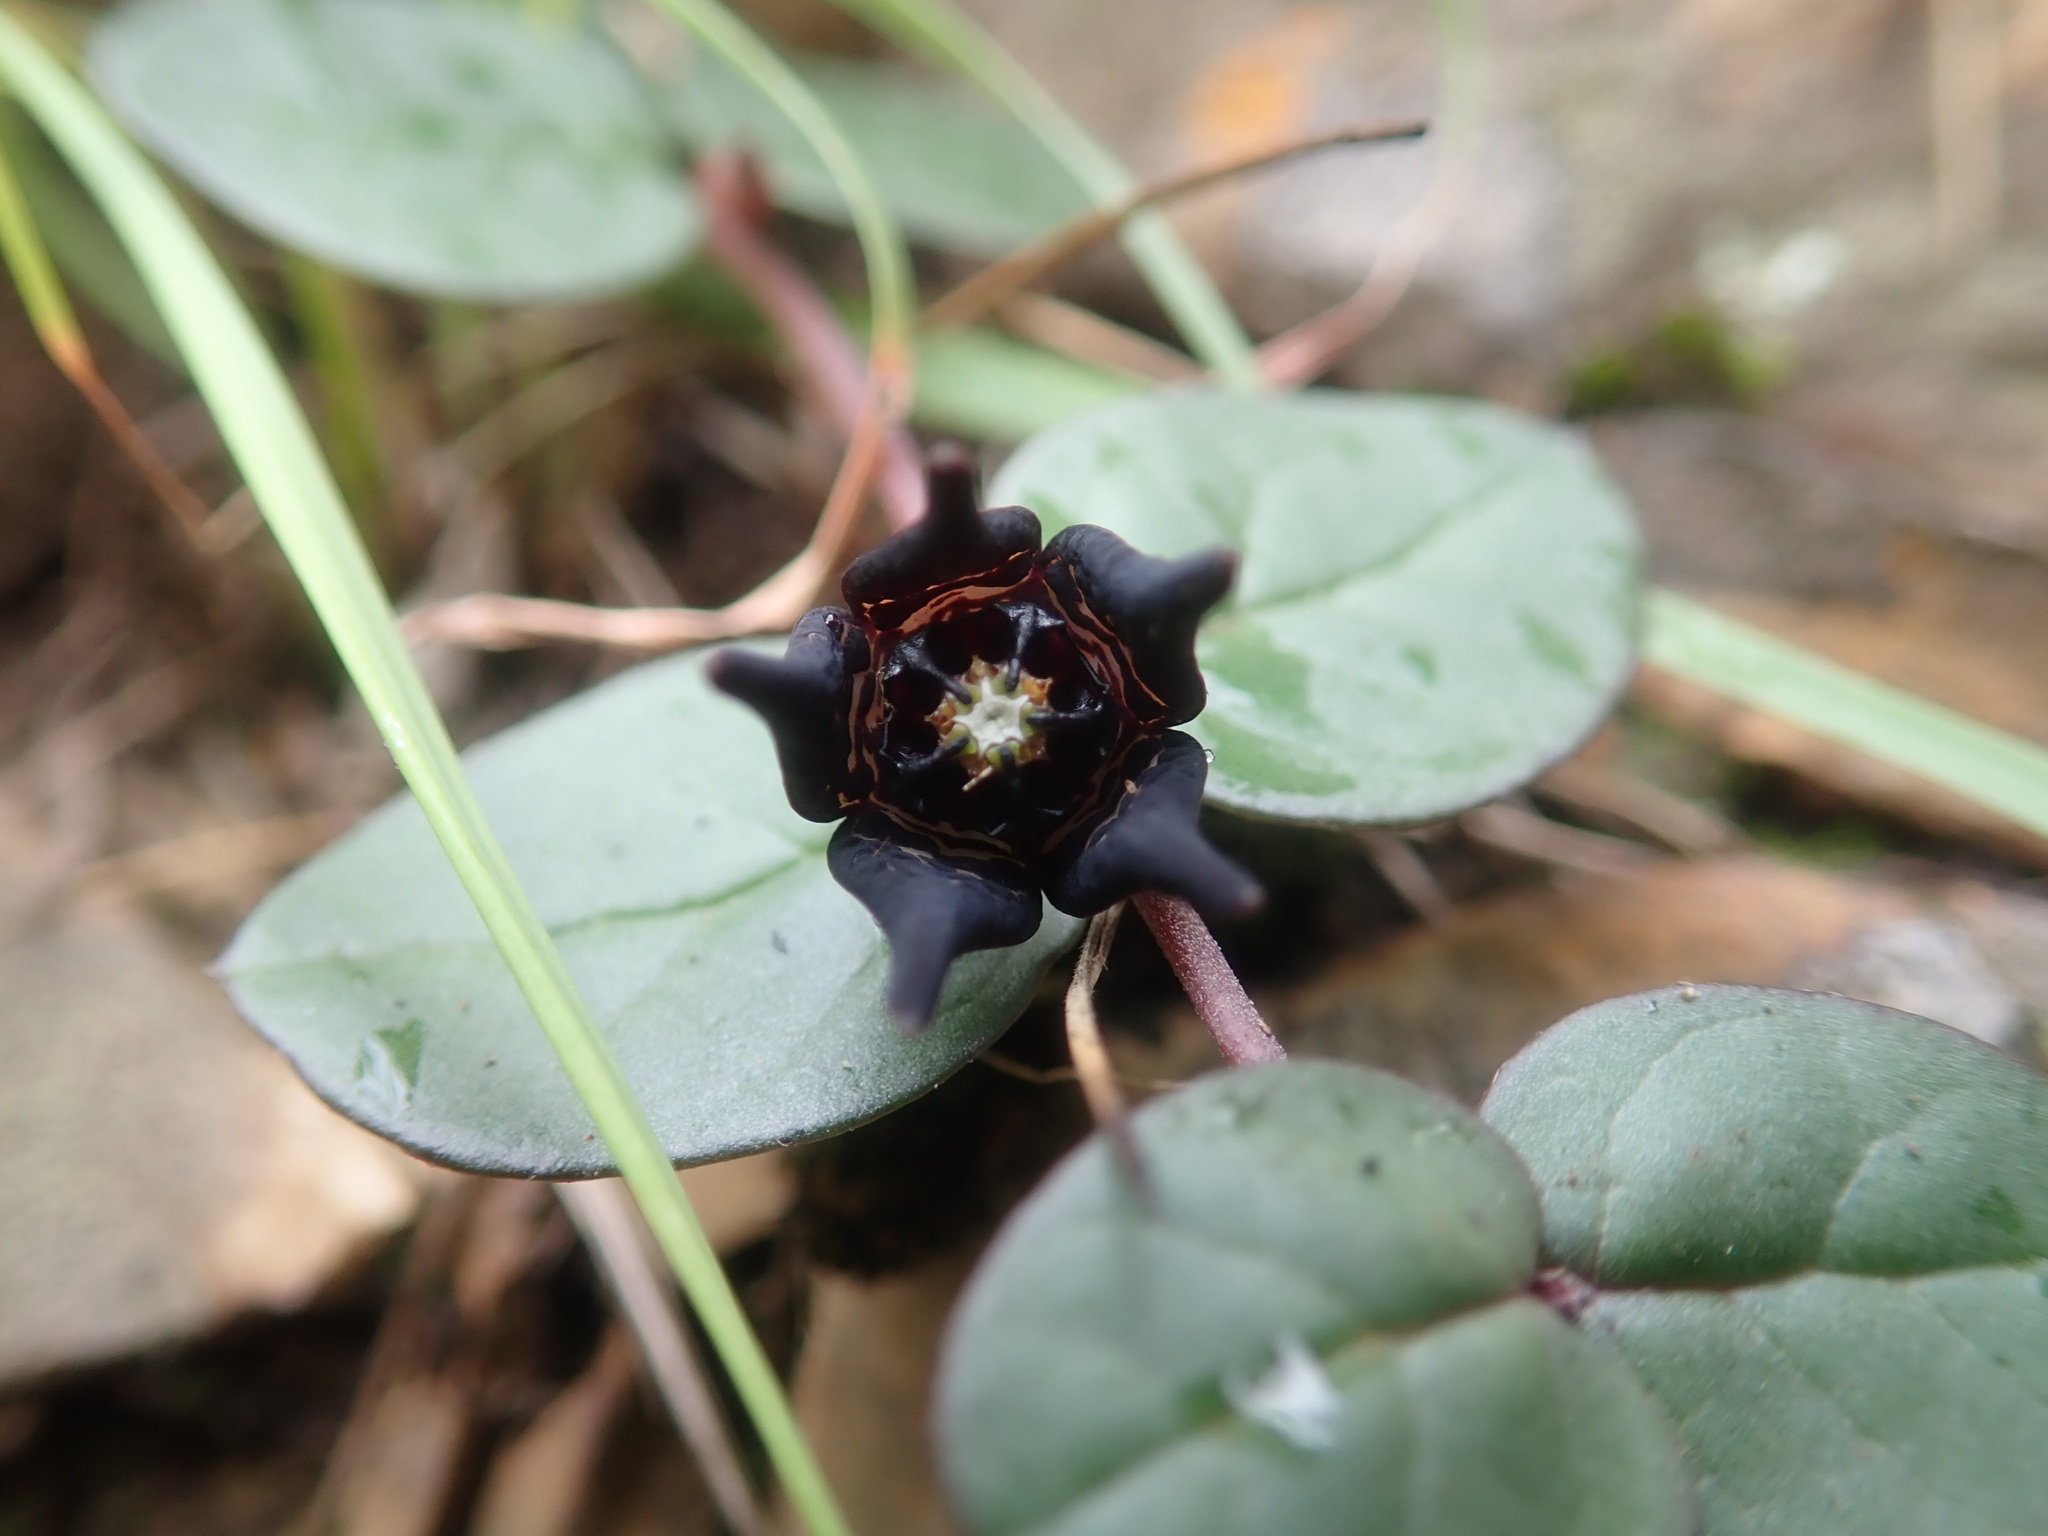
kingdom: Plantae
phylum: Tracheophyta
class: Magnoliopsida
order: Gentianales
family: Apocynaceae
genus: Ceropegia
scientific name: Ceropegia coddii
